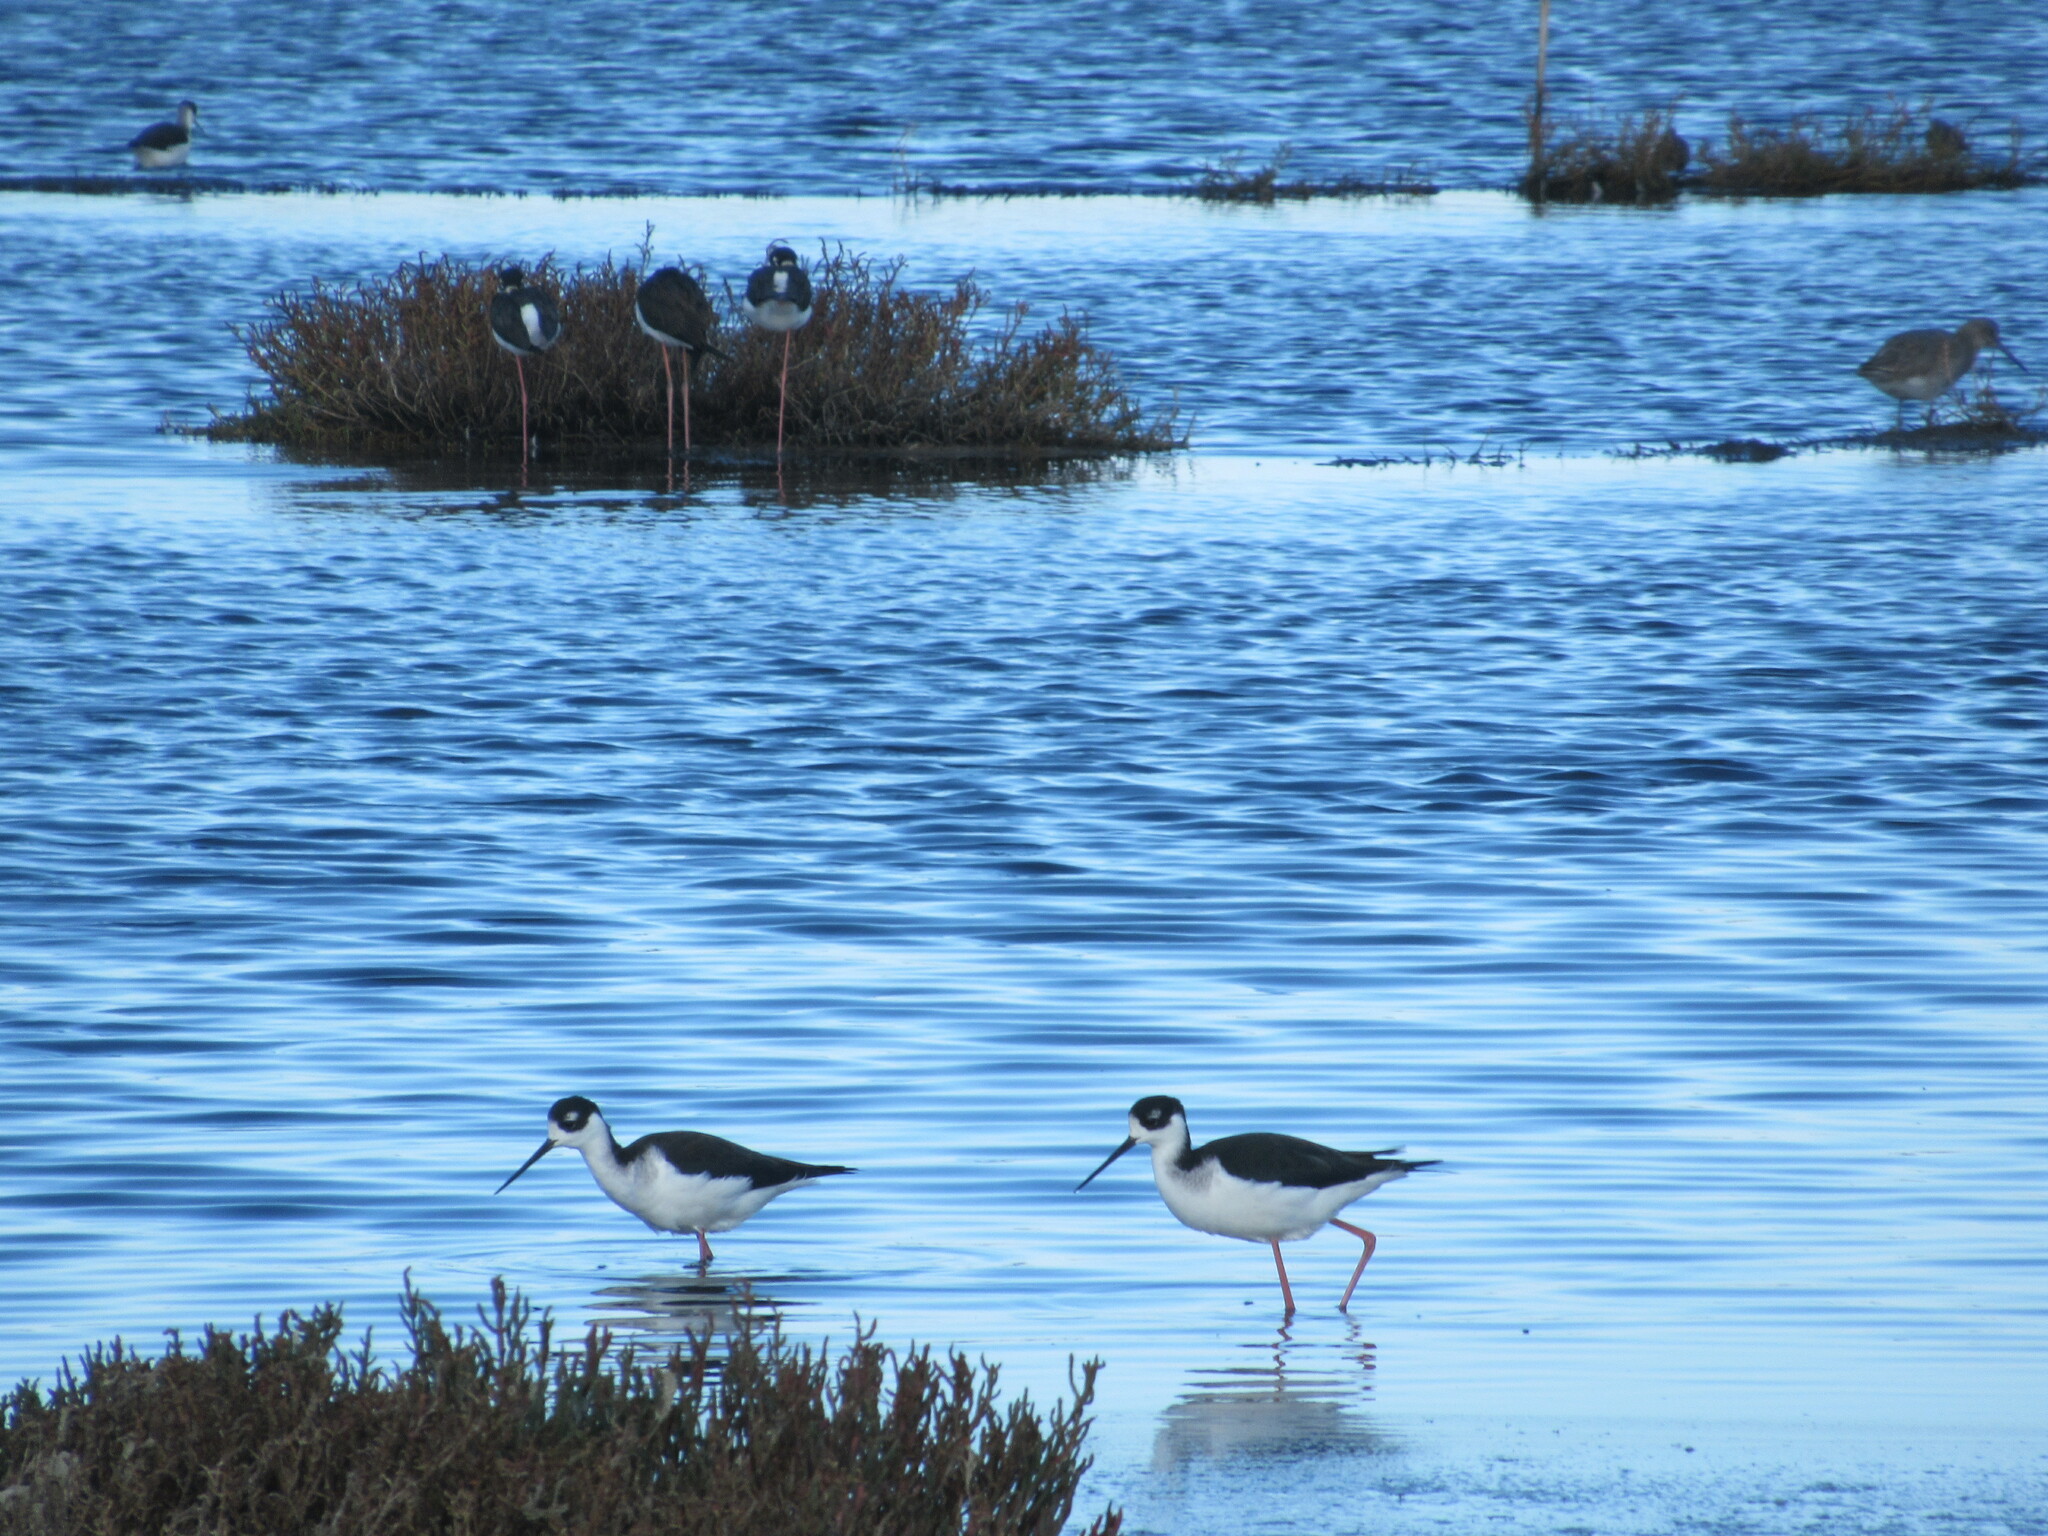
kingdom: Animalia
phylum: Chordata
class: Aves
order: Charadriiformes
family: Recurvirostridae
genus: Himantopus
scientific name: Himantopus mexicanus
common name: Black-necked stilt
